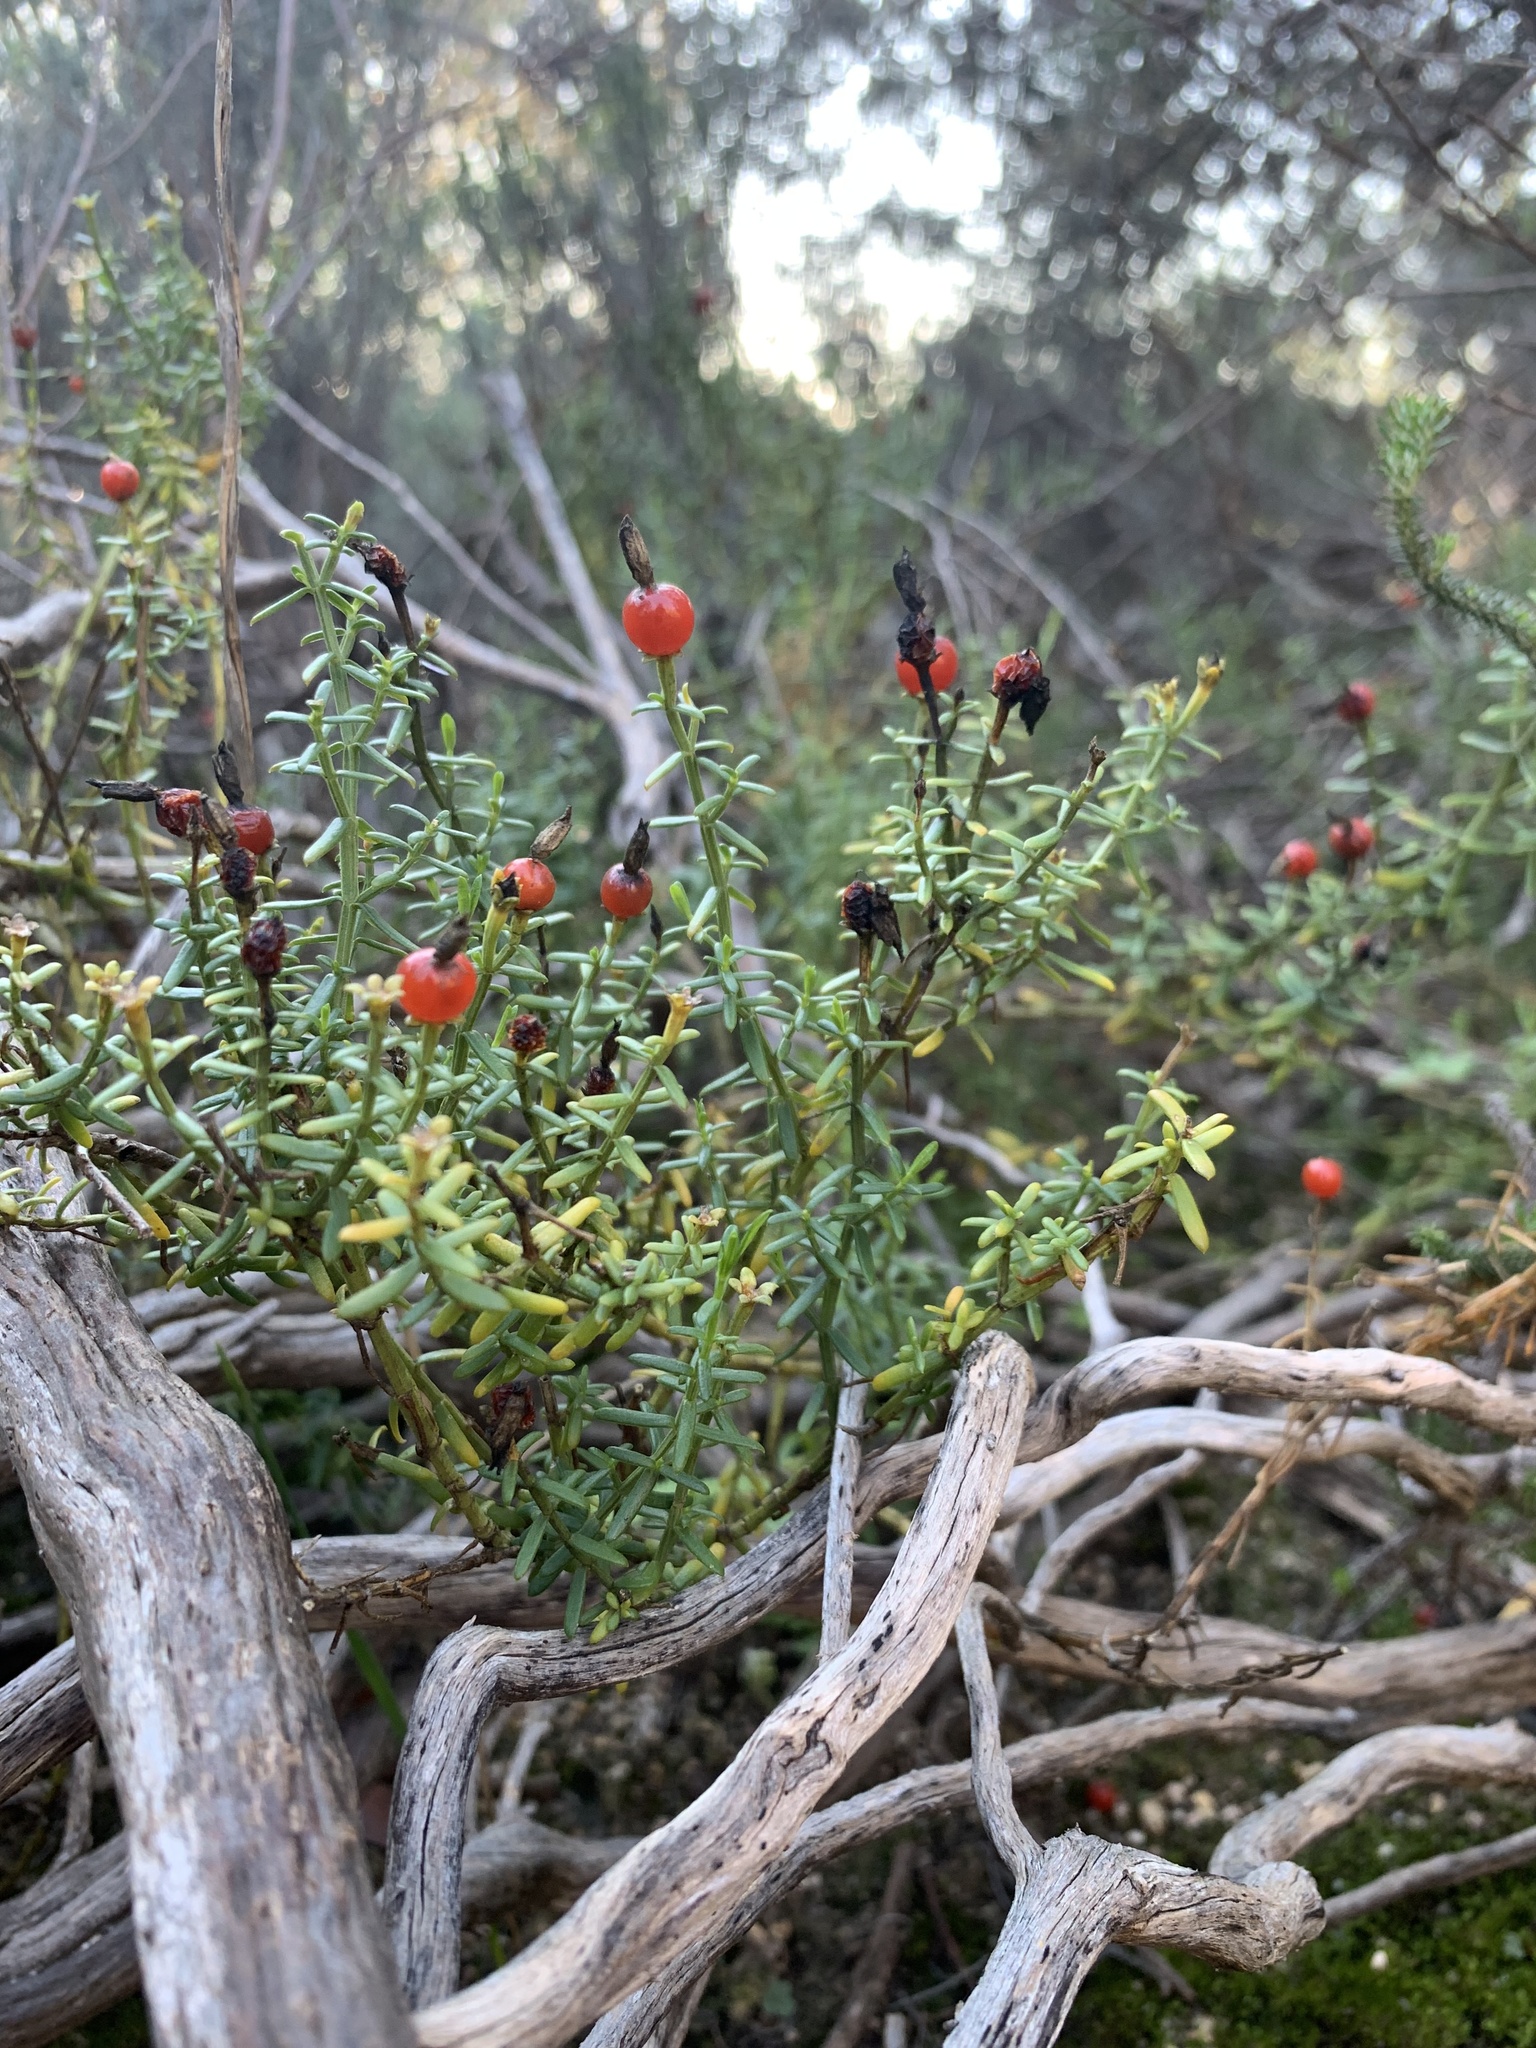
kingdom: Plantae
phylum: Tracheophyta
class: Magnoliopsida
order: Gentianales
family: Gentianaceae
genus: Chironia
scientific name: Chironia baccifera
